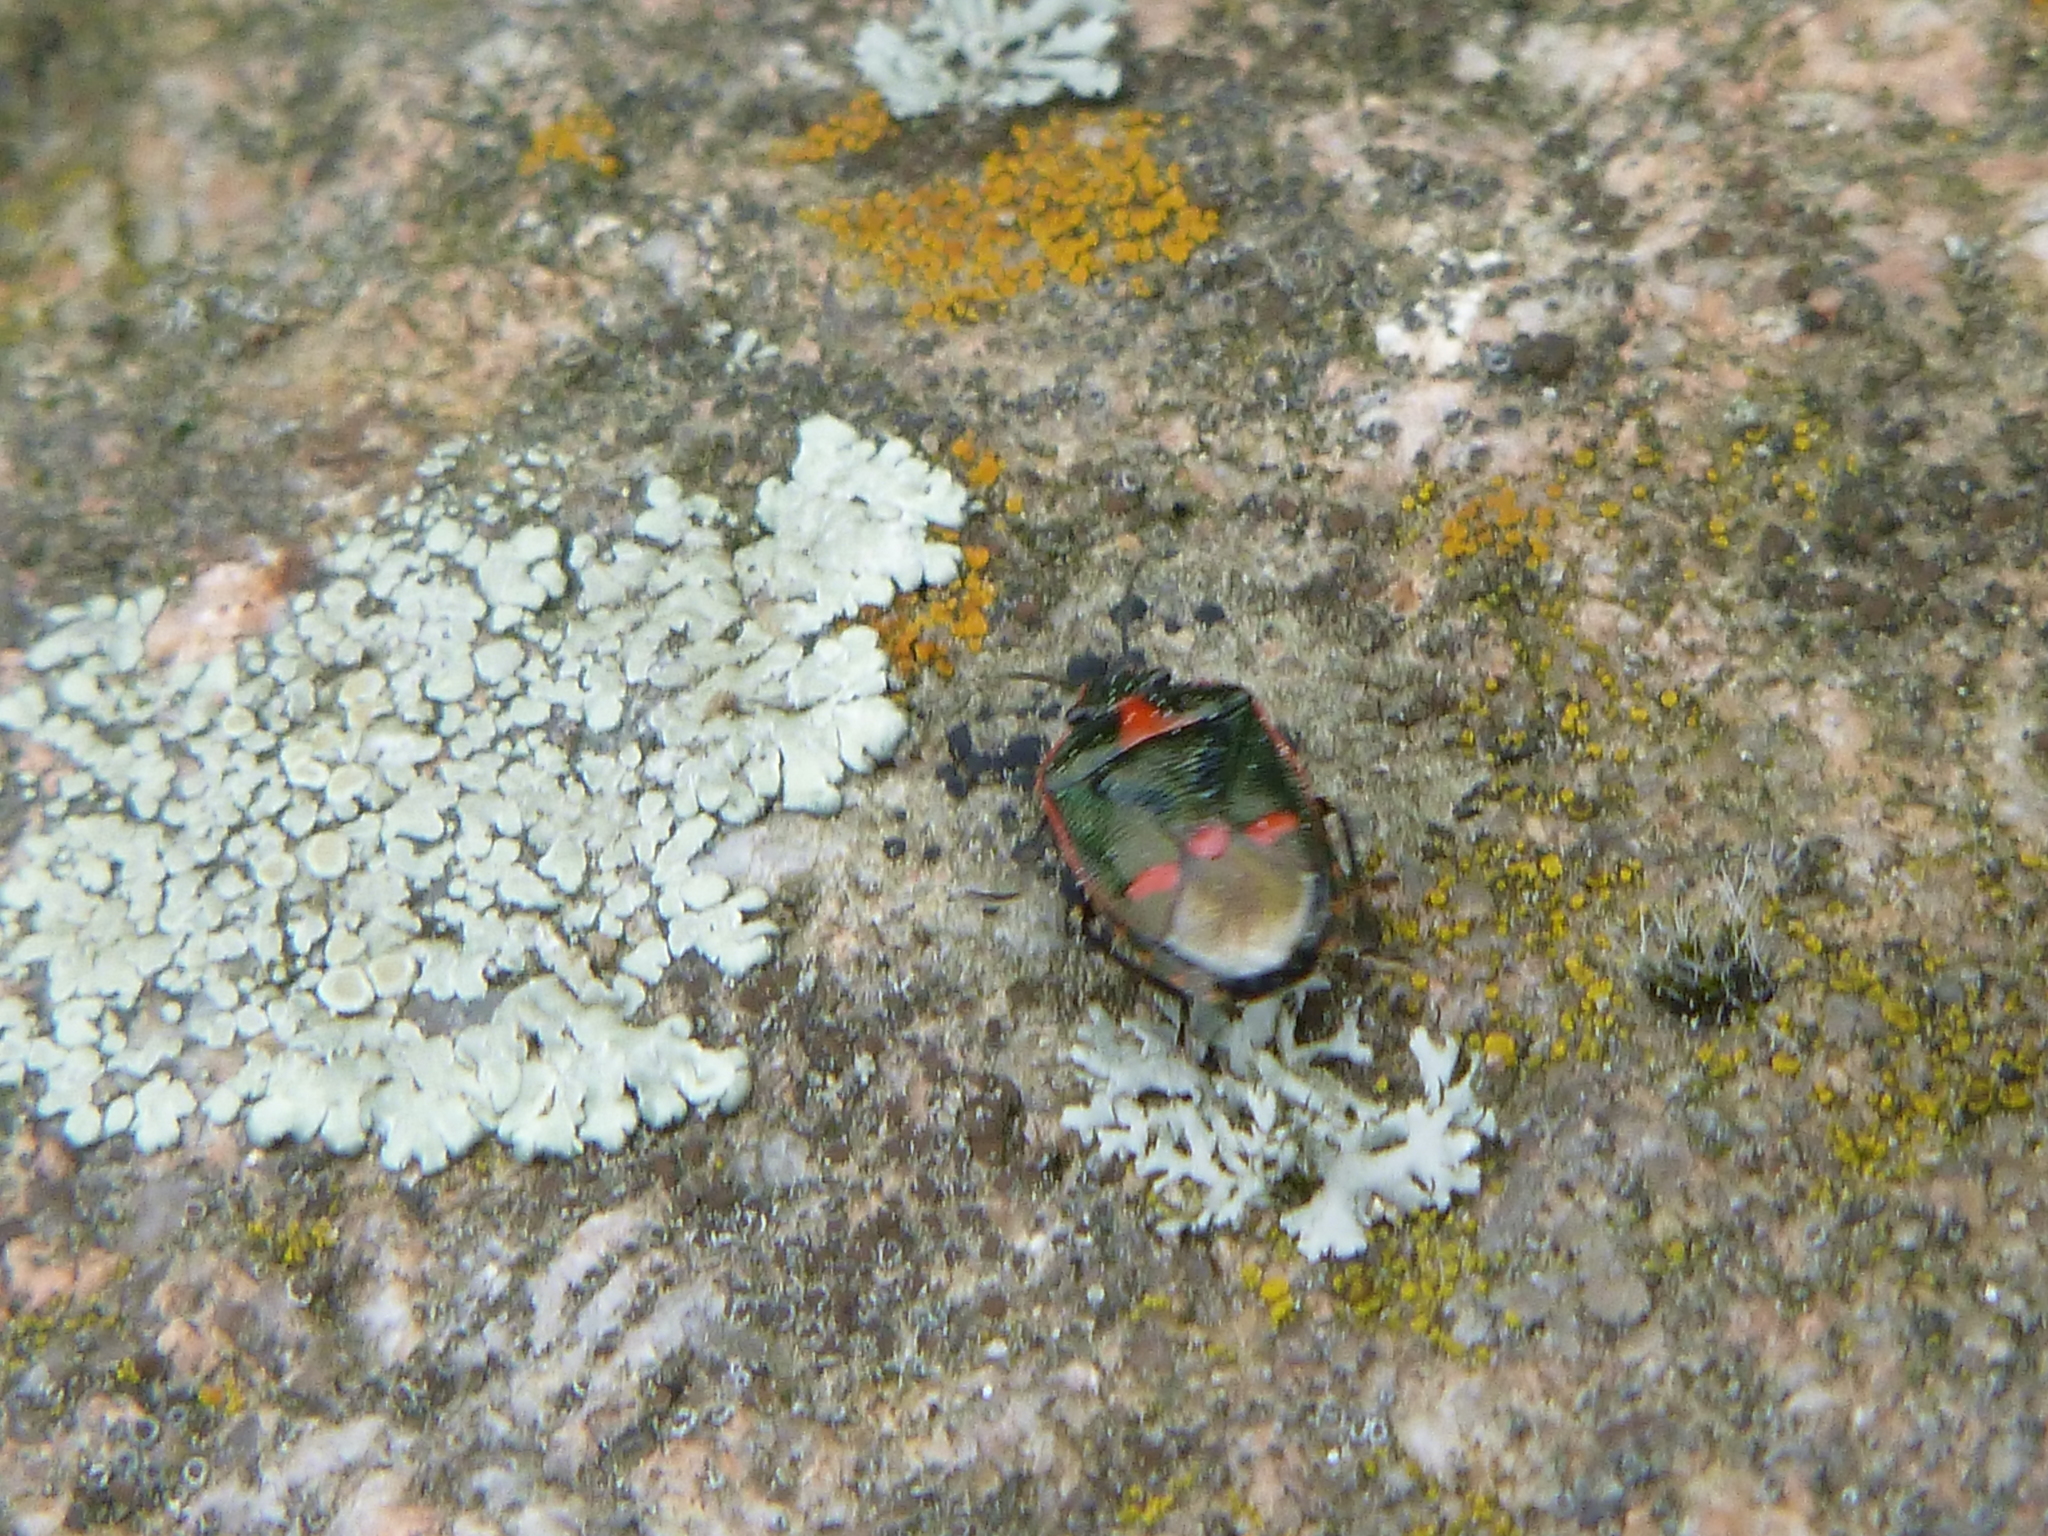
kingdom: Animalia
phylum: Arthropoda
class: Insecta
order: Hemiptera
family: Pentatomidae
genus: Eurydema
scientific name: Eurydema oleracea
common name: Cabbage bug
